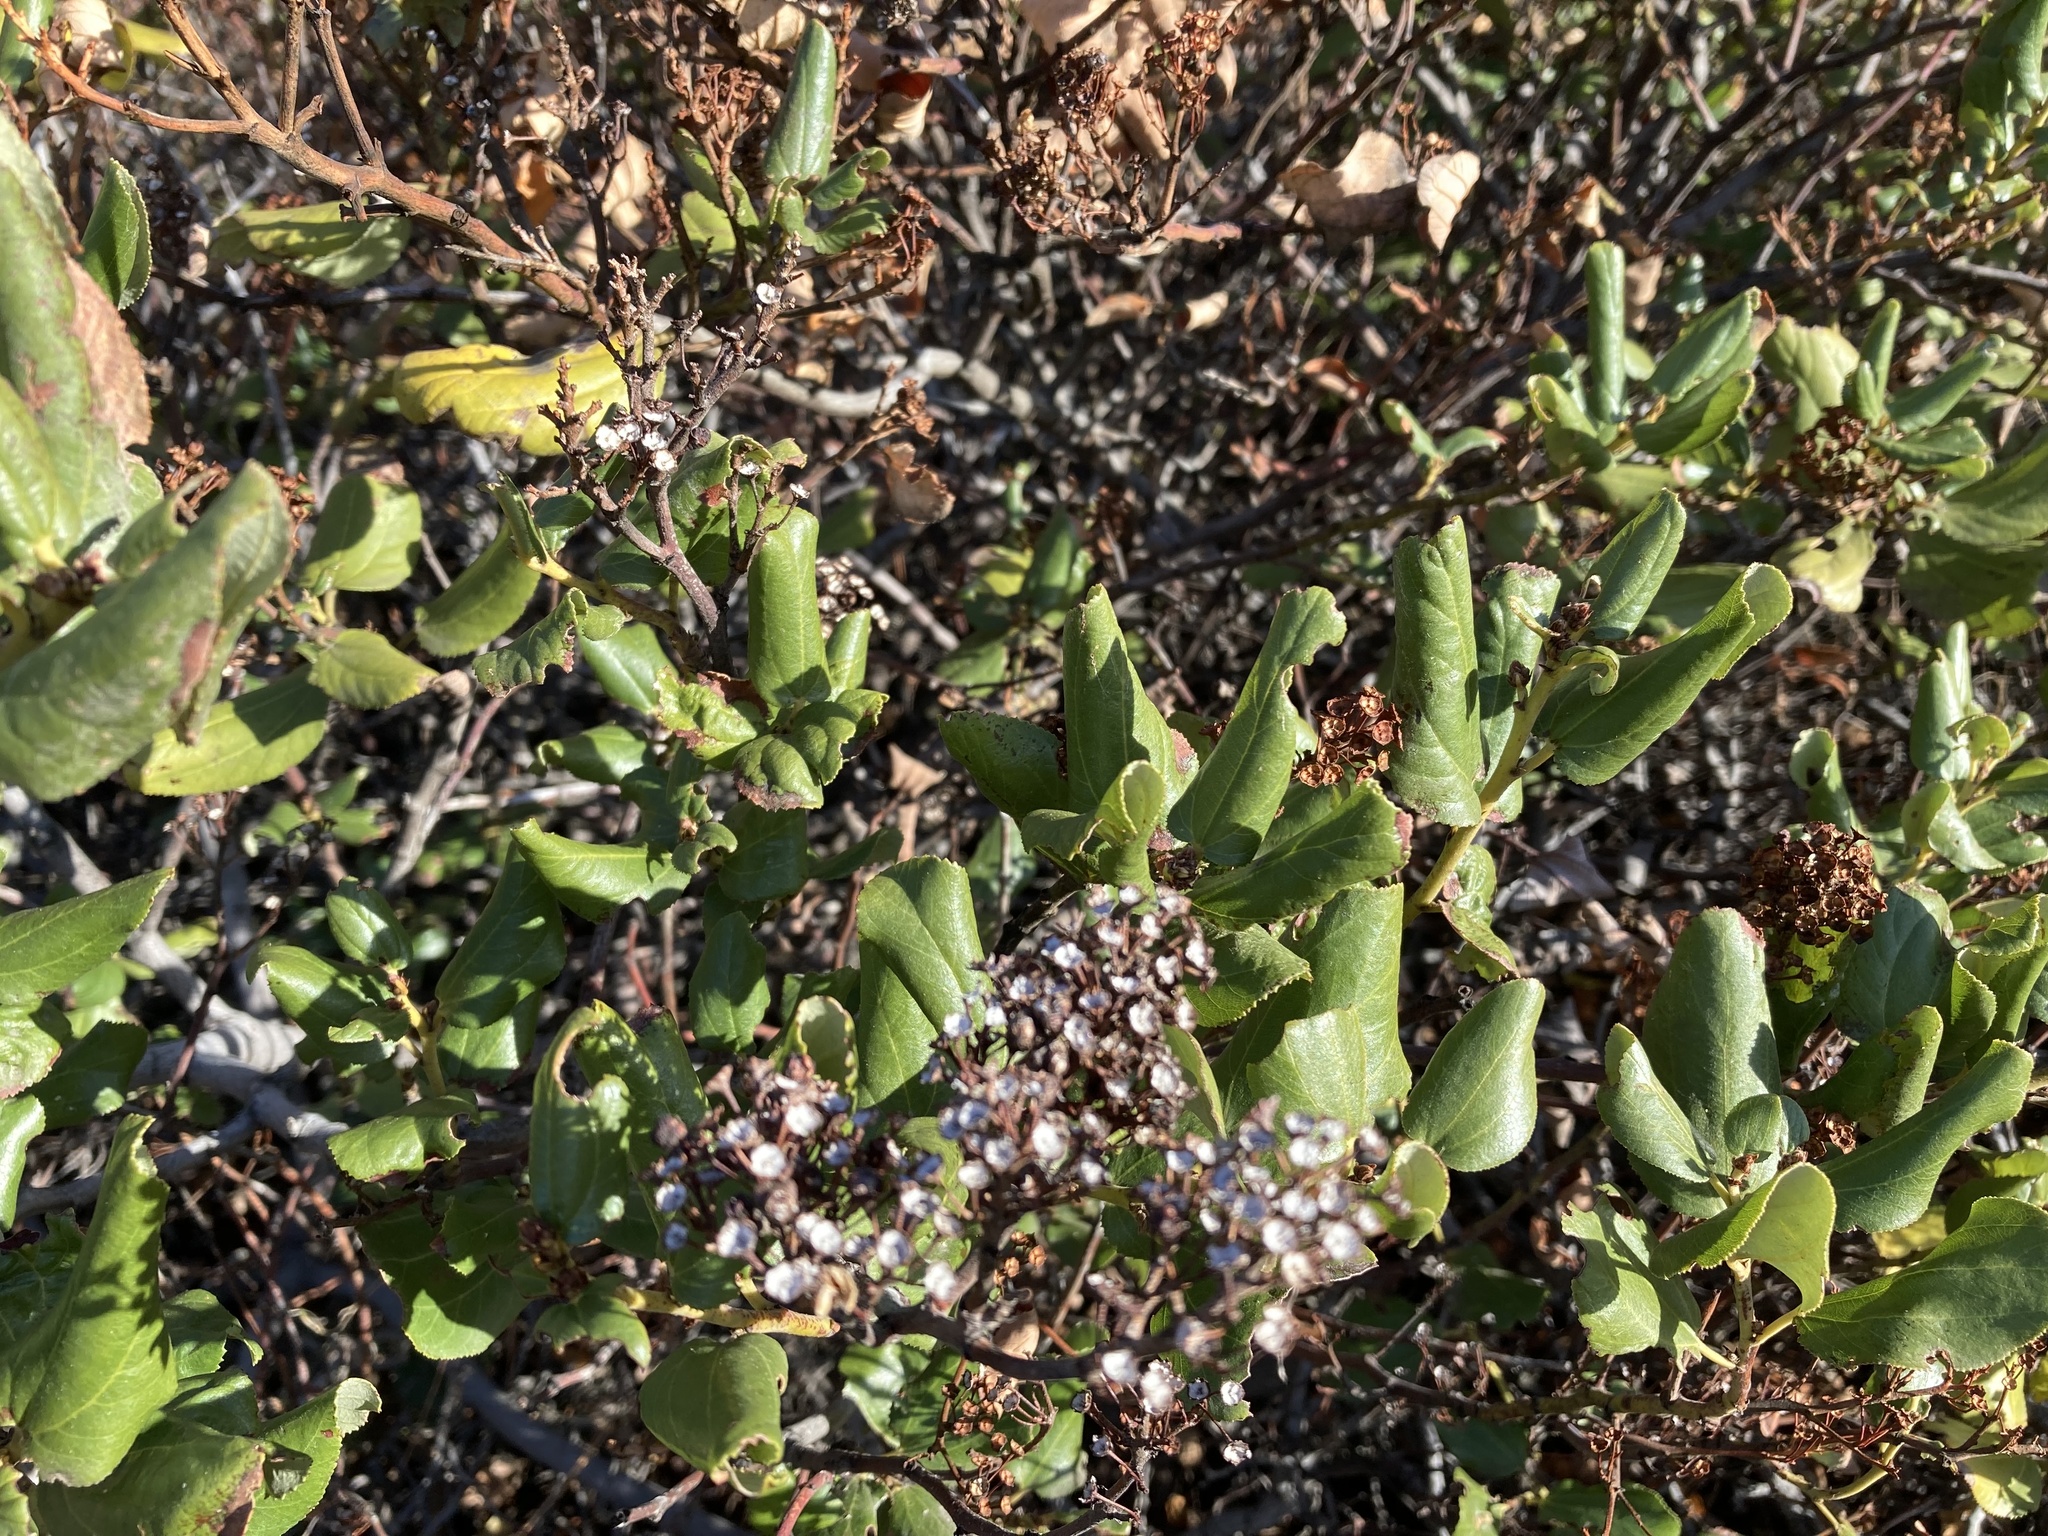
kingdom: Plantae
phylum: Tracheophyta
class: Magnoliopsida
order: Rosales
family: Rhamnaceae
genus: Ceanothus
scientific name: Ceanothus velutinus
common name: Snowbrush
